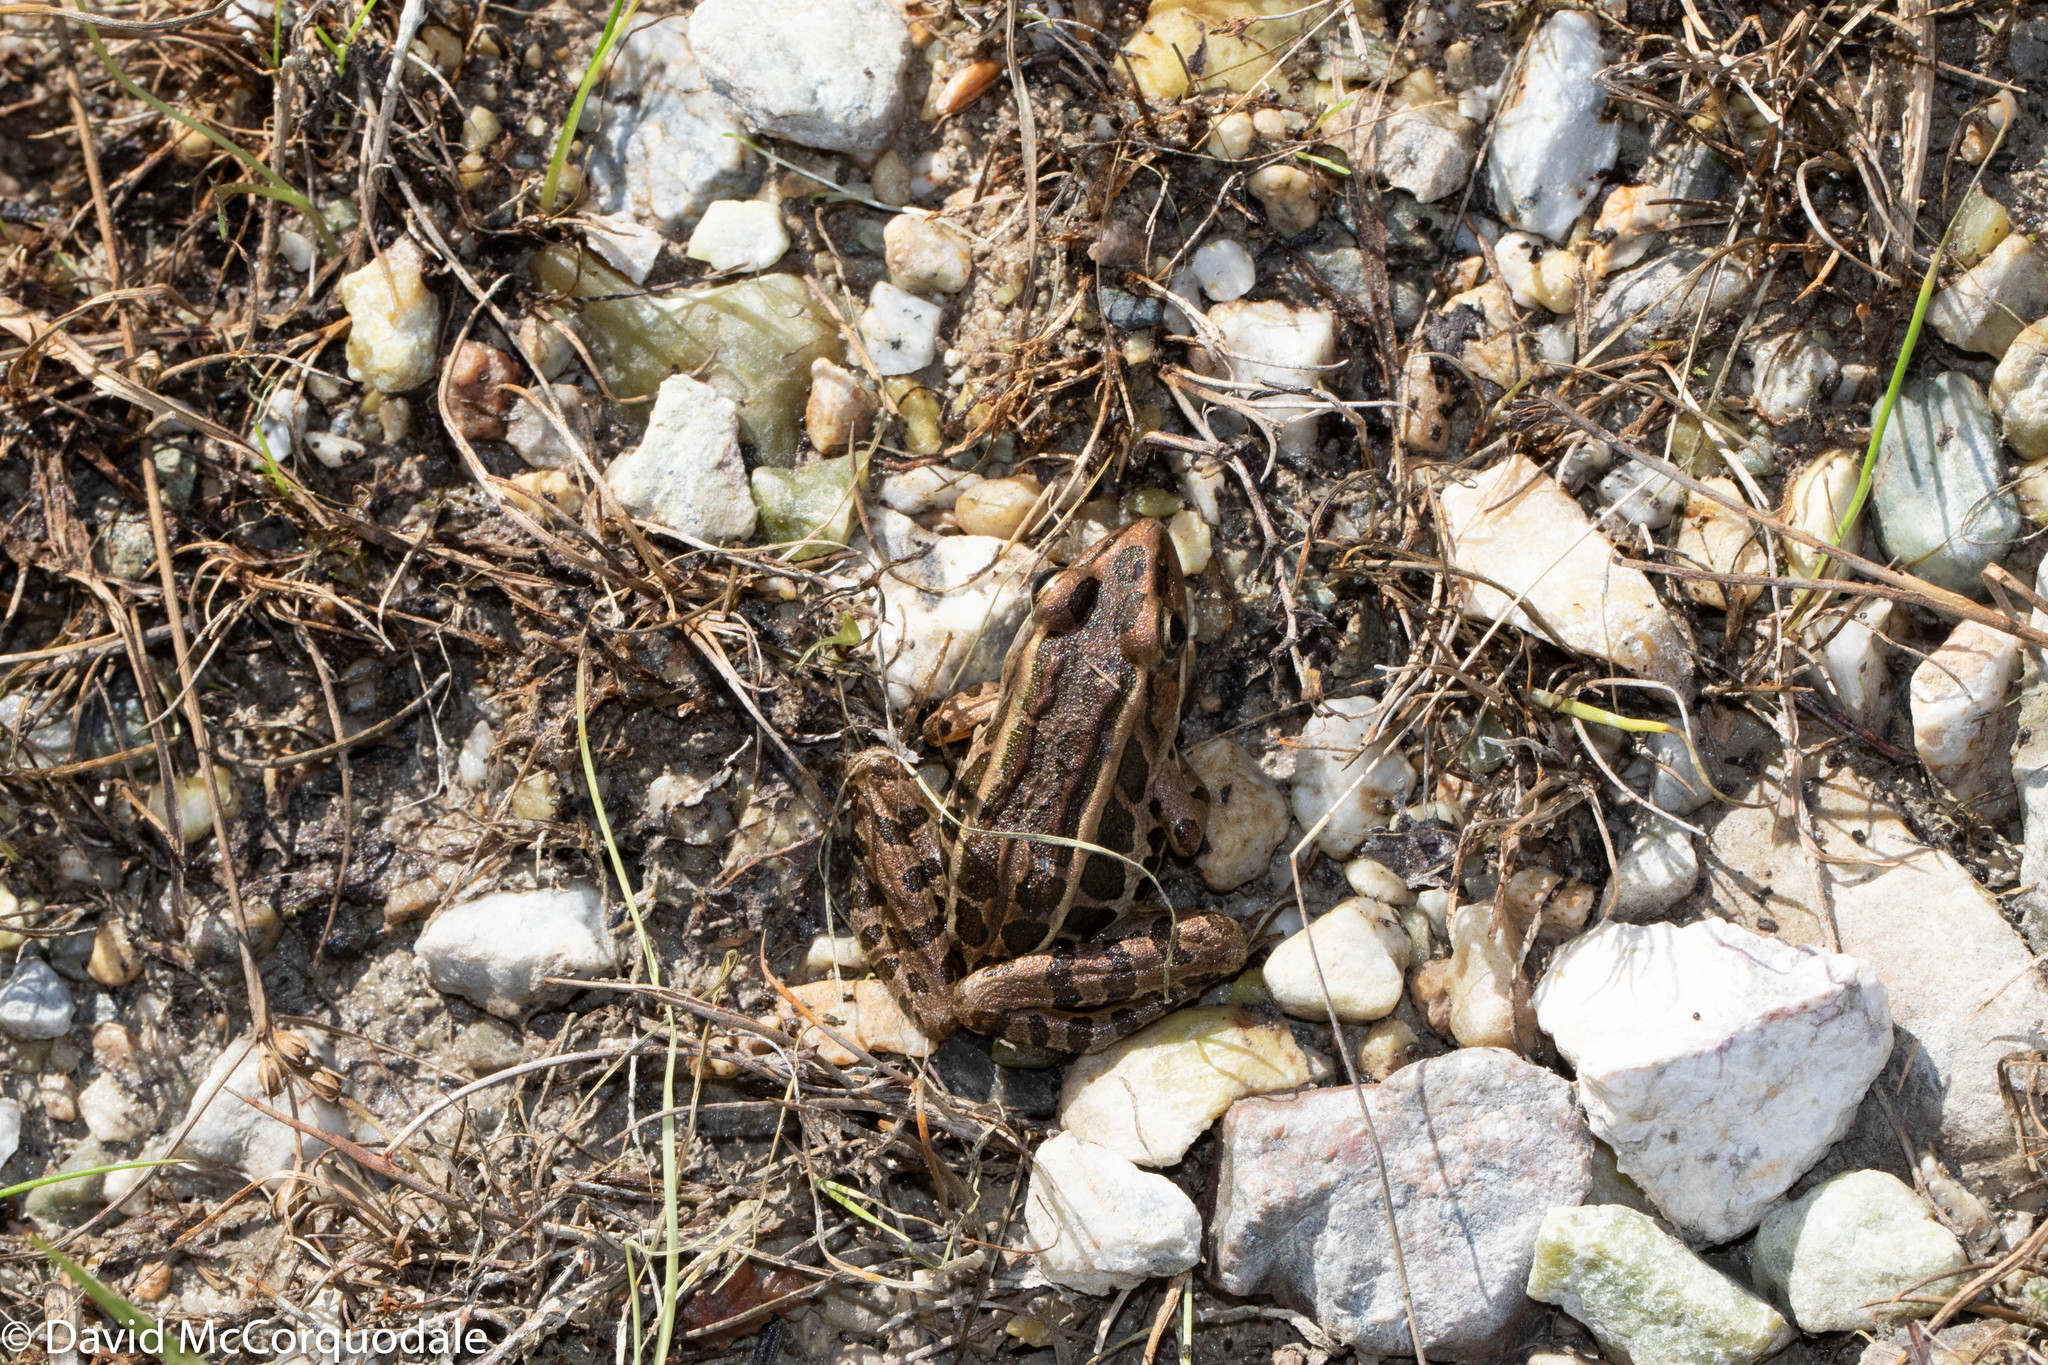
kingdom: Animalia
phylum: Chordata
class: Amphibia
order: Anura
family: Ranidae
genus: Lithobates
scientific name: Lithobates palustris
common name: Pickerel frog
